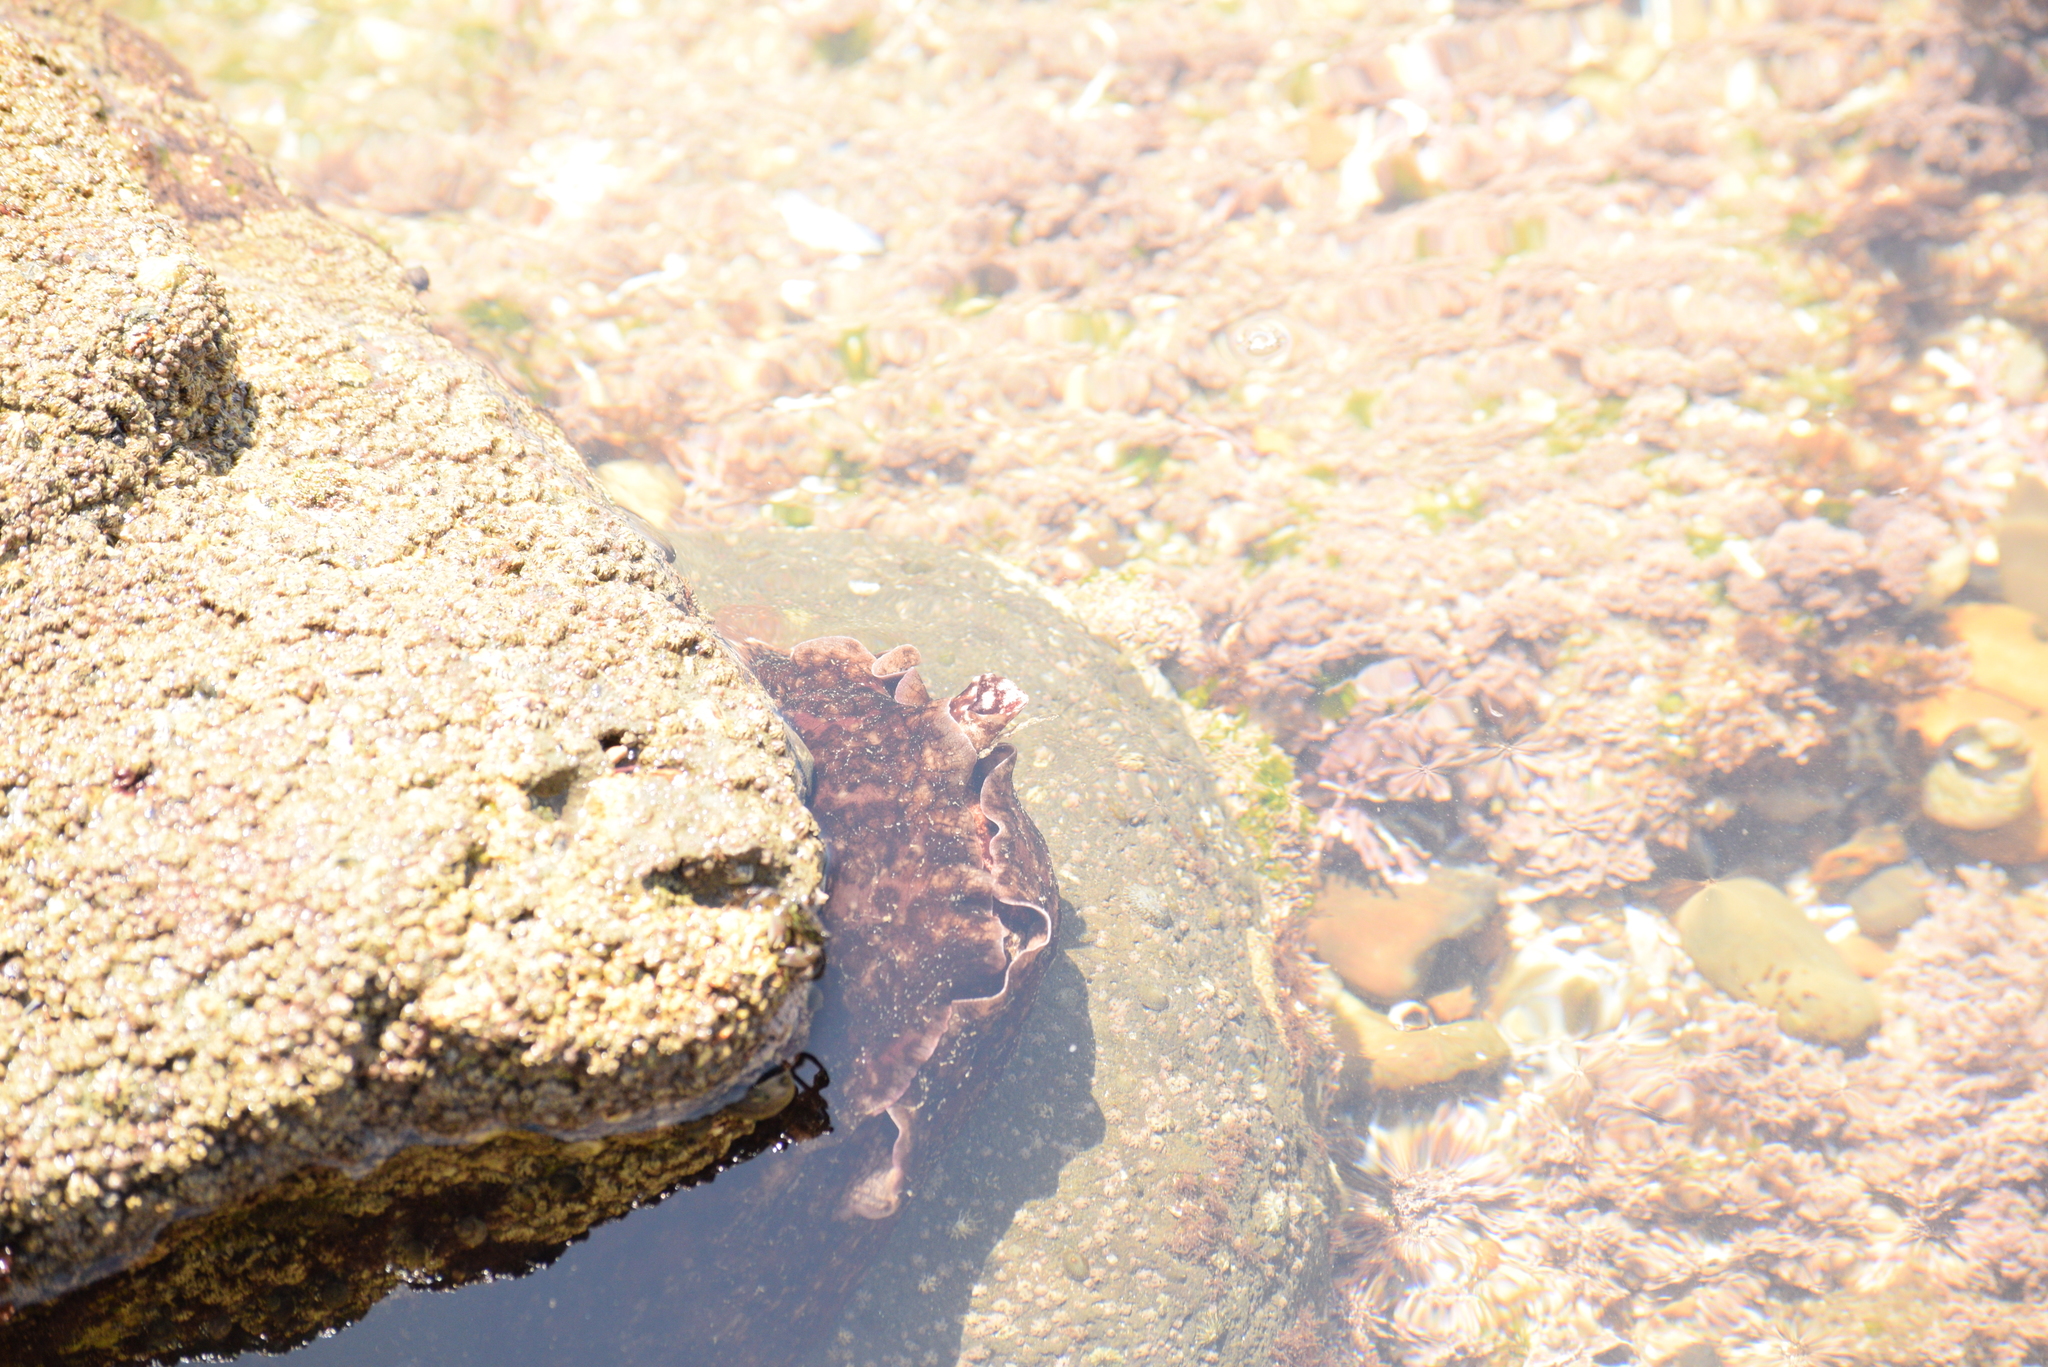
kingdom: Animalia
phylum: Mollusca
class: Gastropoda
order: Aplysiida
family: Aplysiidae
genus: Aplysia
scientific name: Aplysia californica
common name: California seahare
